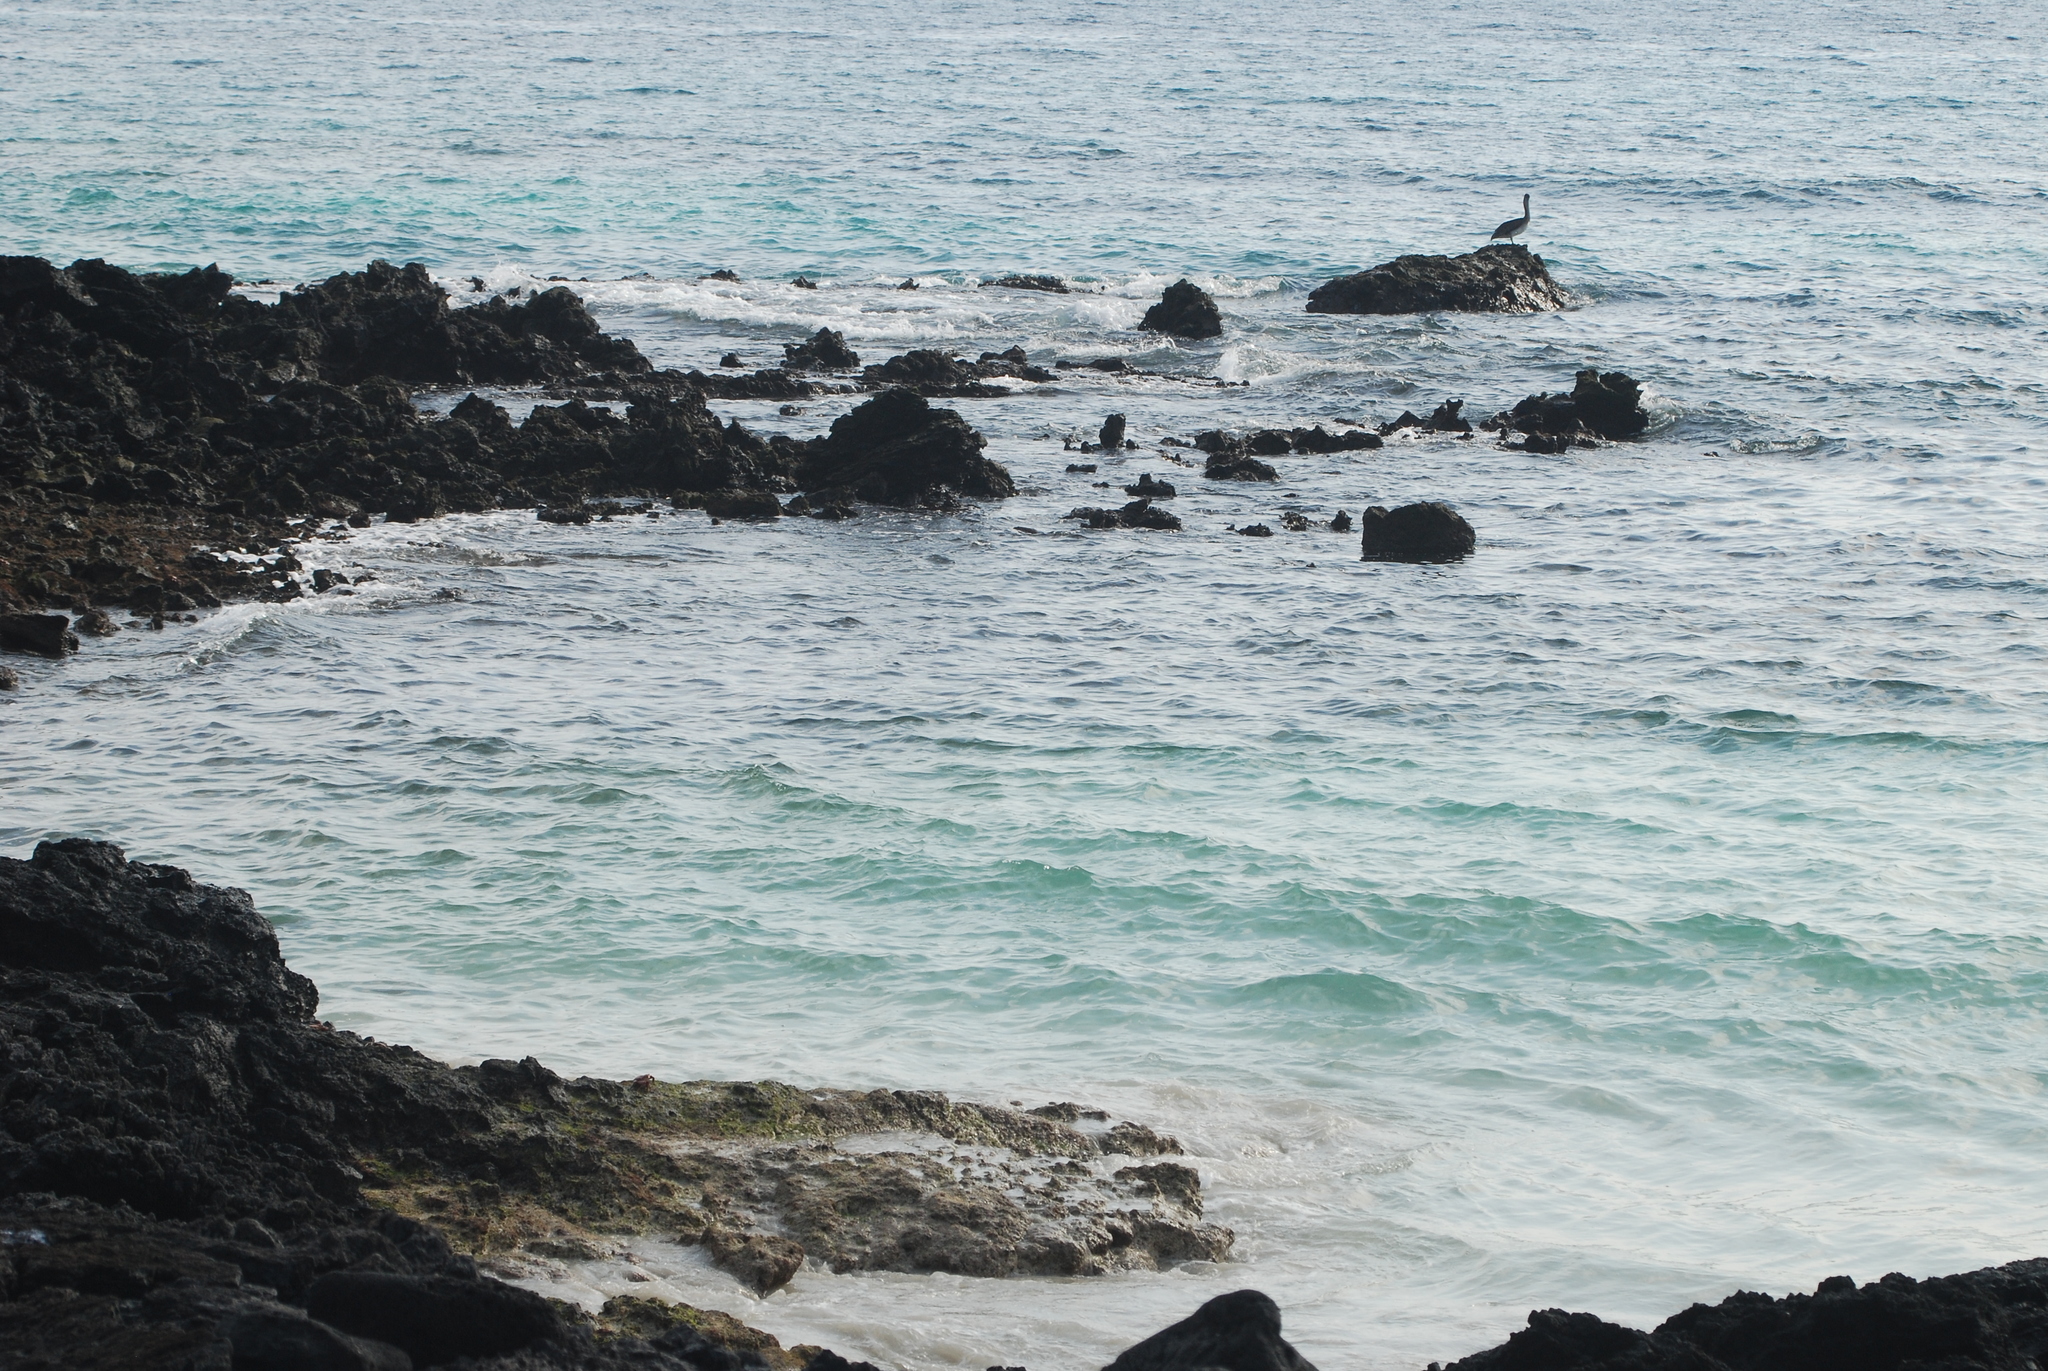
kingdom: Animalia
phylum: Chordata
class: Aves
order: Pelecaniformes
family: Pelecanidae
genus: Pelecanus
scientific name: Pelecanus occidentalis
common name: Brown pelican
